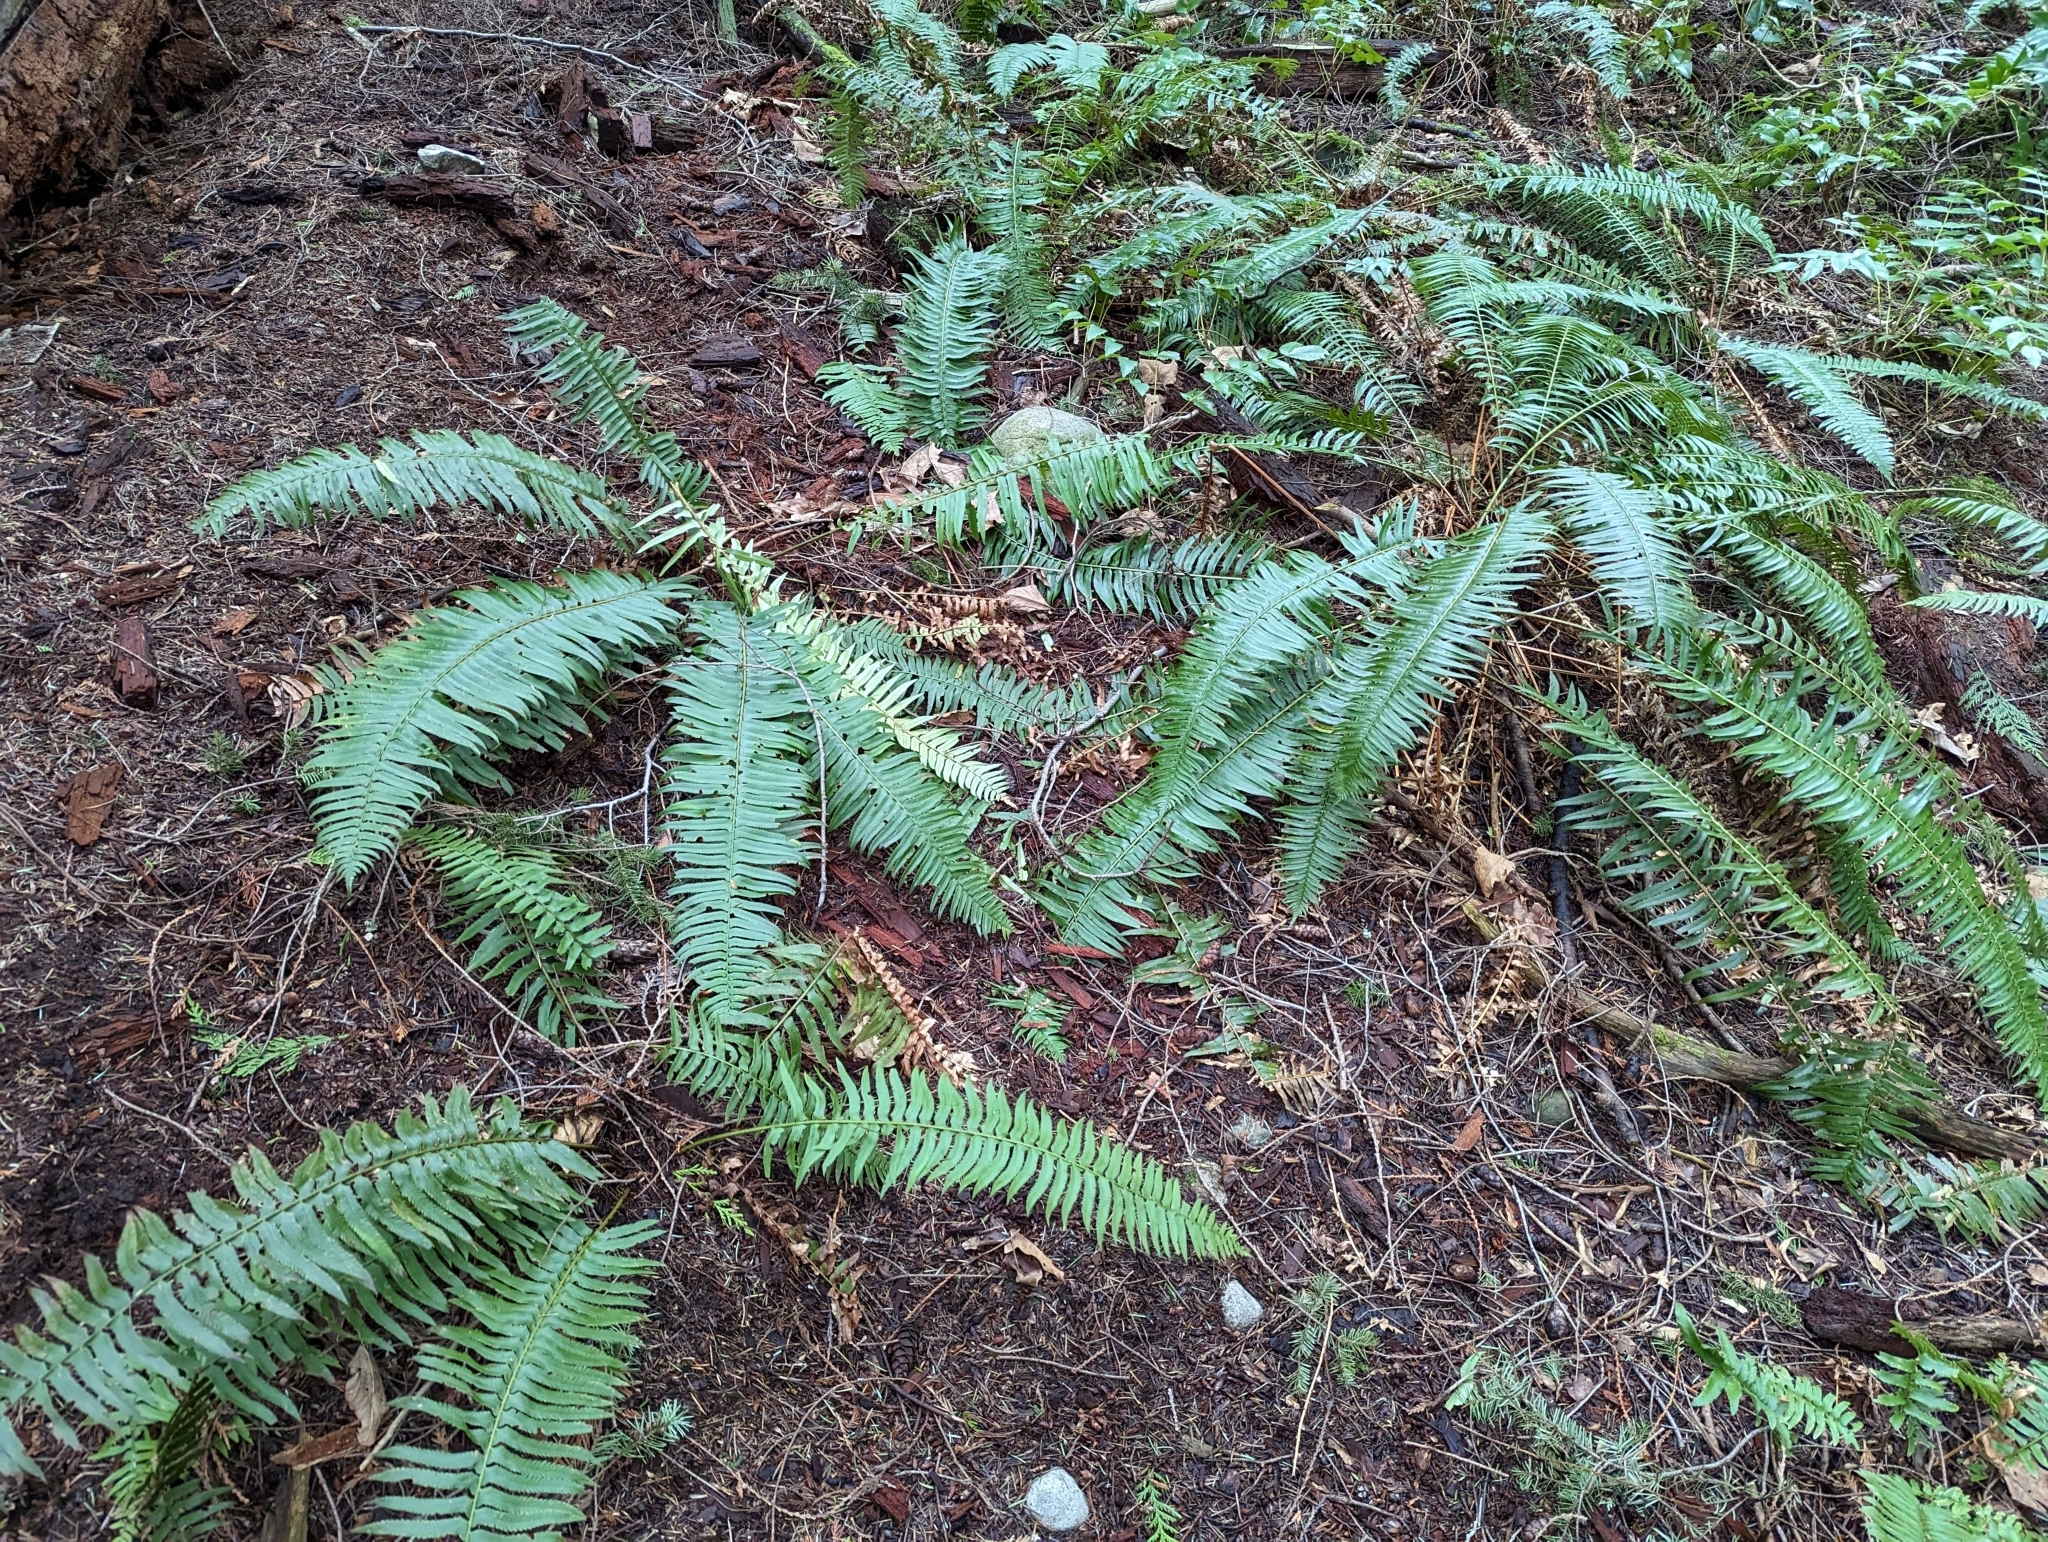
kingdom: Plantae
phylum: Tracheophyta
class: Polypodiopsida
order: Polypodiales
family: Dryopteridaceae
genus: Polystichum
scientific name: Polystichum munitum
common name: Western sword-fern
